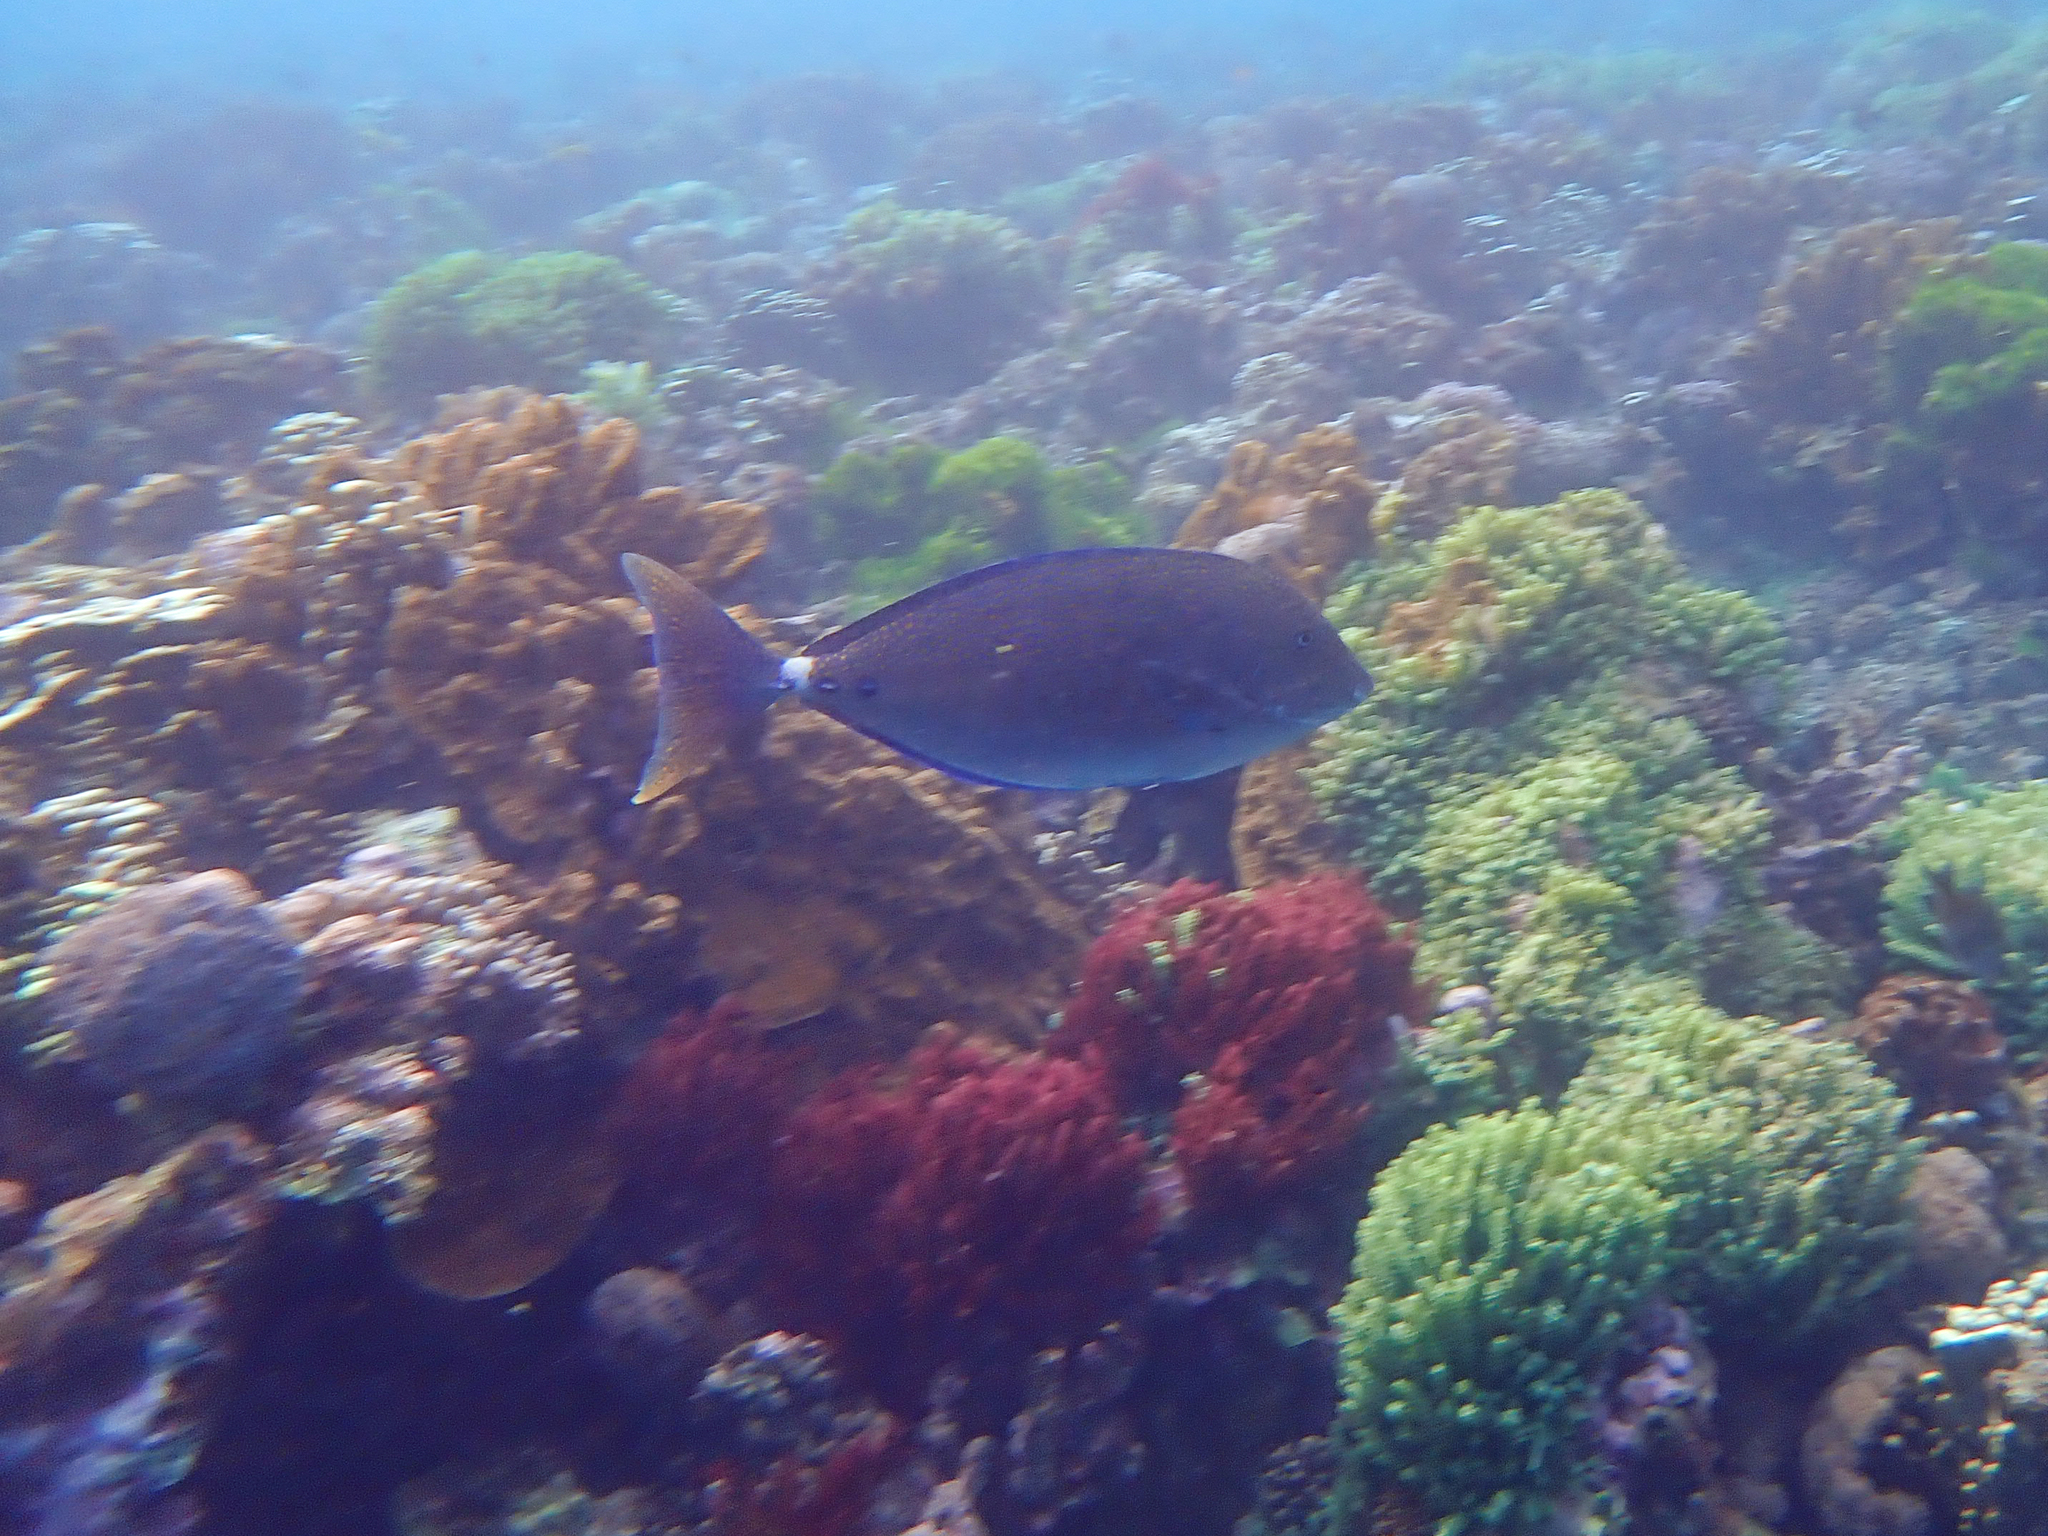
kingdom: Animalia
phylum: Chordata
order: Perciformes
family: Acanthuridae
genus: Prionurus
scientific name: Prionurus maculatus
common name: Yellowspotted sawtail
